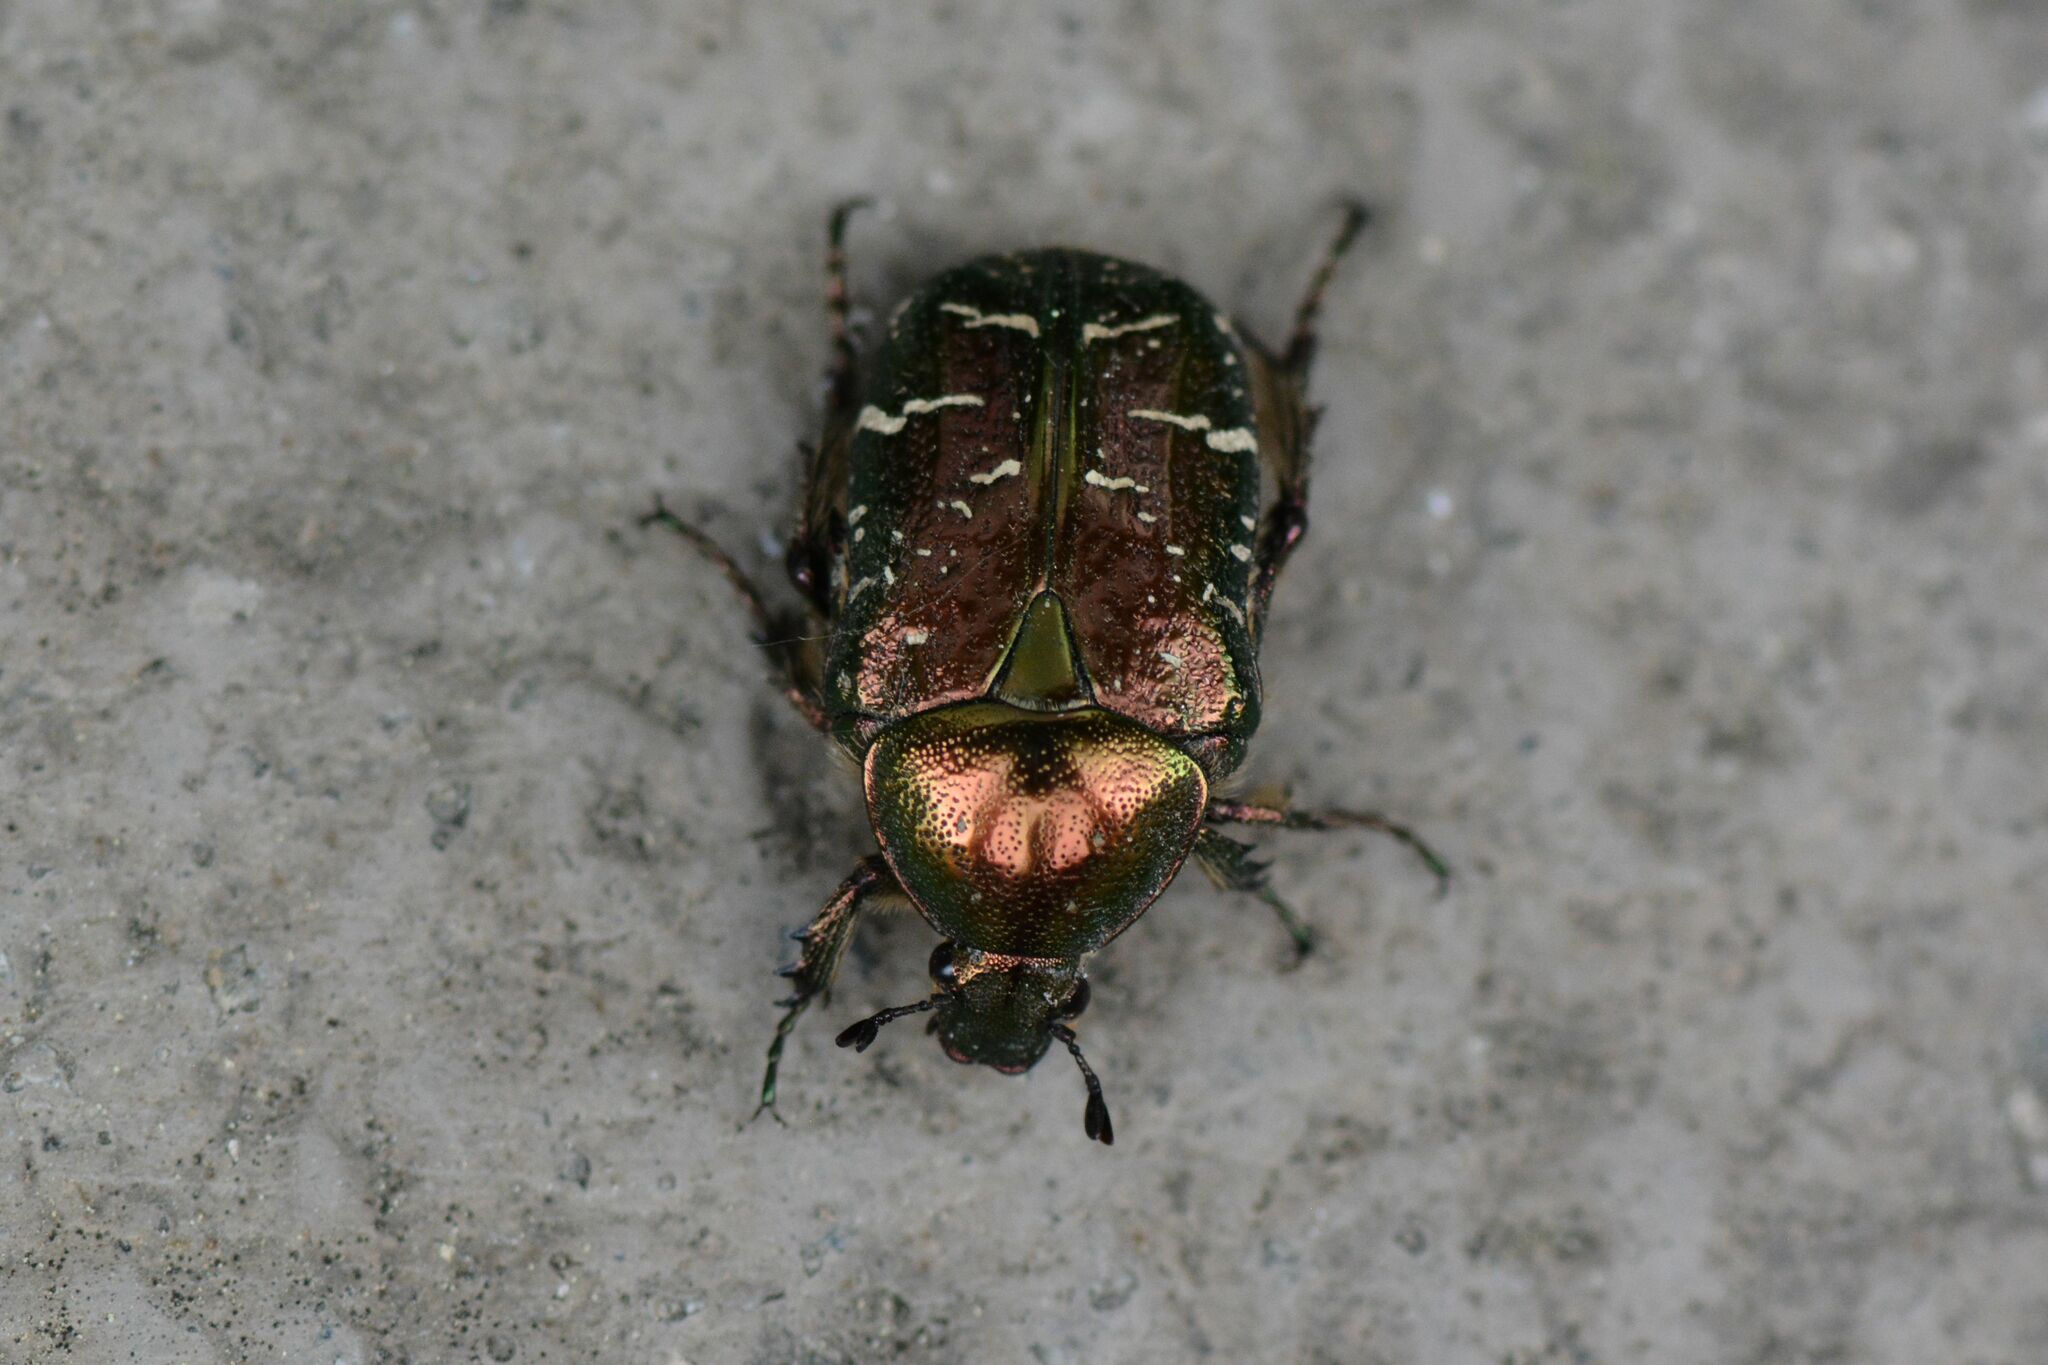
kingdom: Animalia
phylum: Arthropoda
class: Insecta
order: Coleoptera
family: Scarabaeidae
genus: Cetonia
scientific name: Cetonia aurata
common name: Rose chafer
